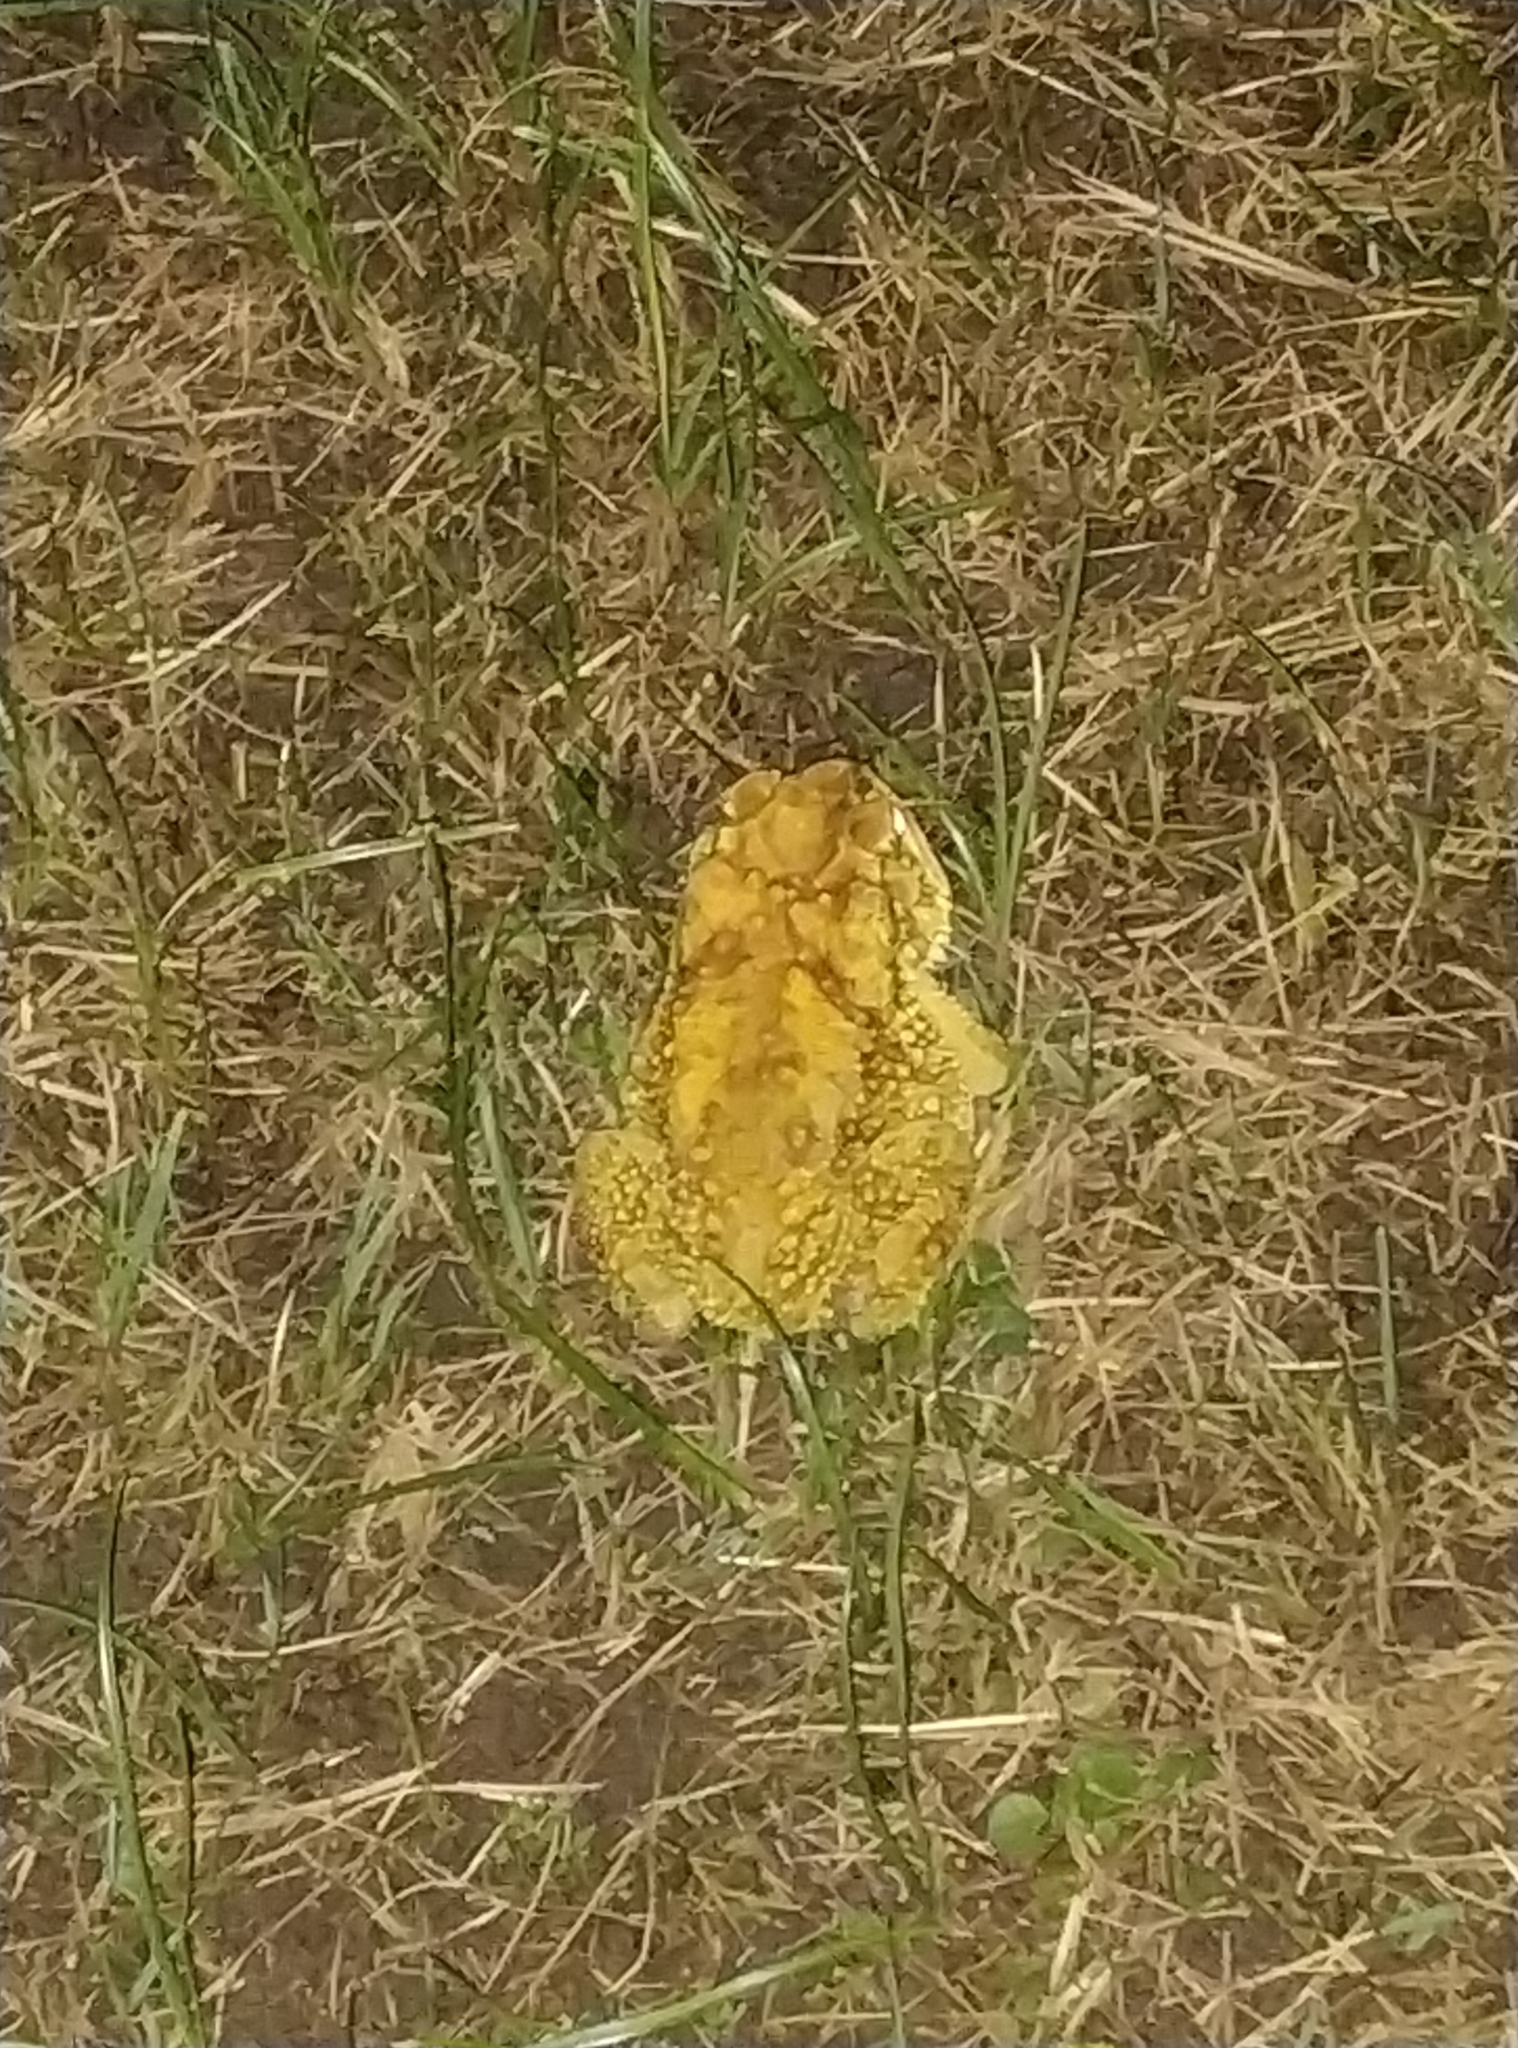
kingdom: Animalia
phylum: Chordata
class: Amphibia
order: Anura
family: Bufonidae
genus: Duttaphrynus
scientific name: Duttaphrynus melanostictus
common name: Common sunda toad
